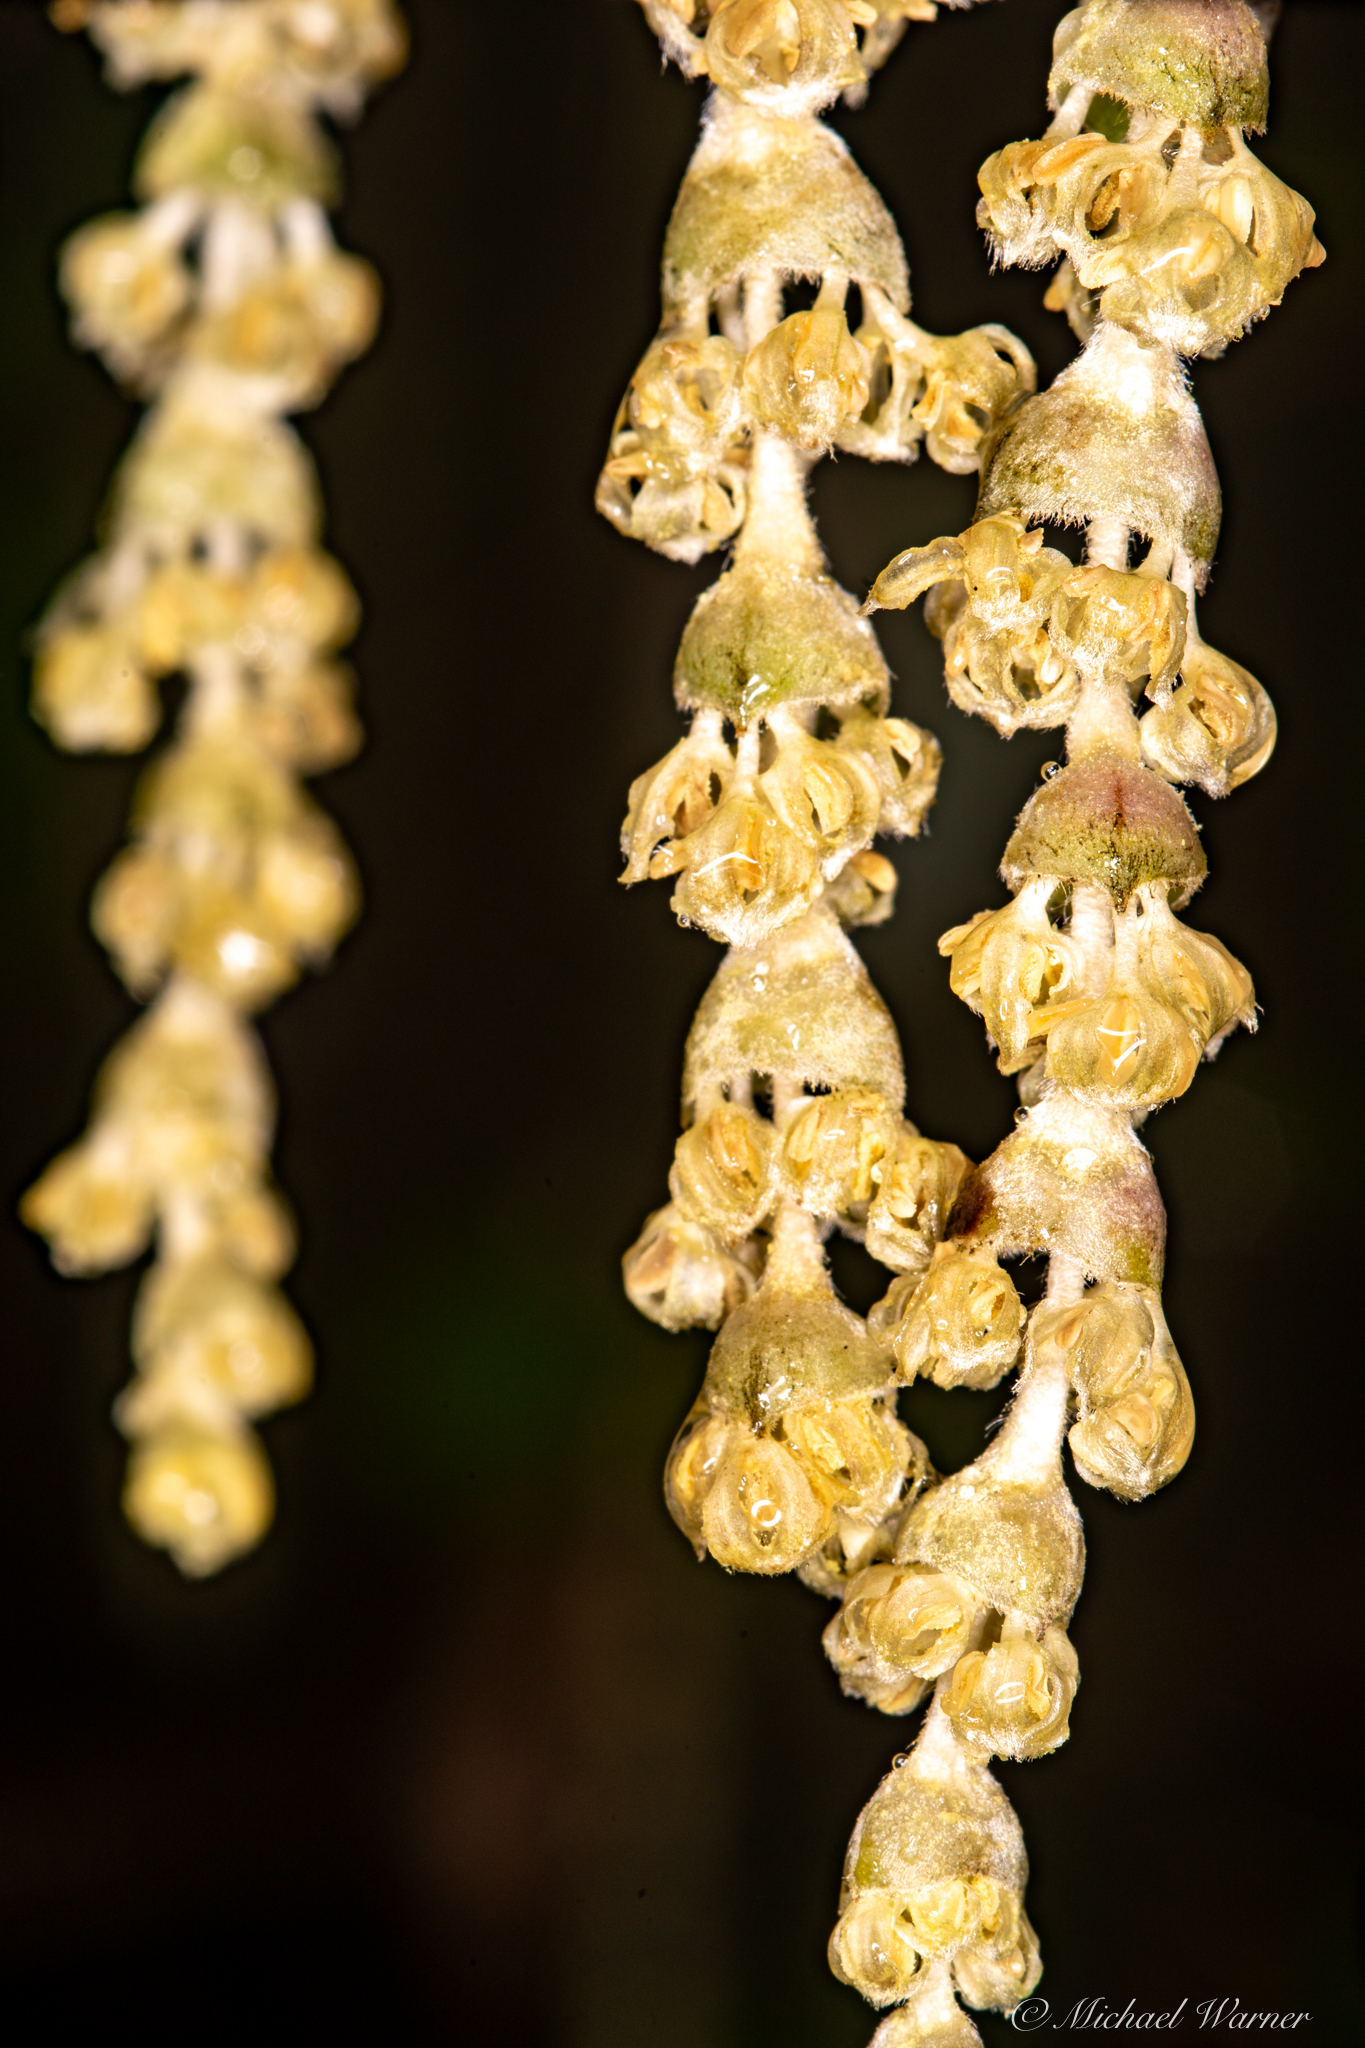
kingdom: Plantae
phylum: Tracheophyta
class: Magnoliopsida
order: Garryales
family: Garryaceae
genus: Garrya
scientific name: Garrya elliptica
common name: Silk-tassel
